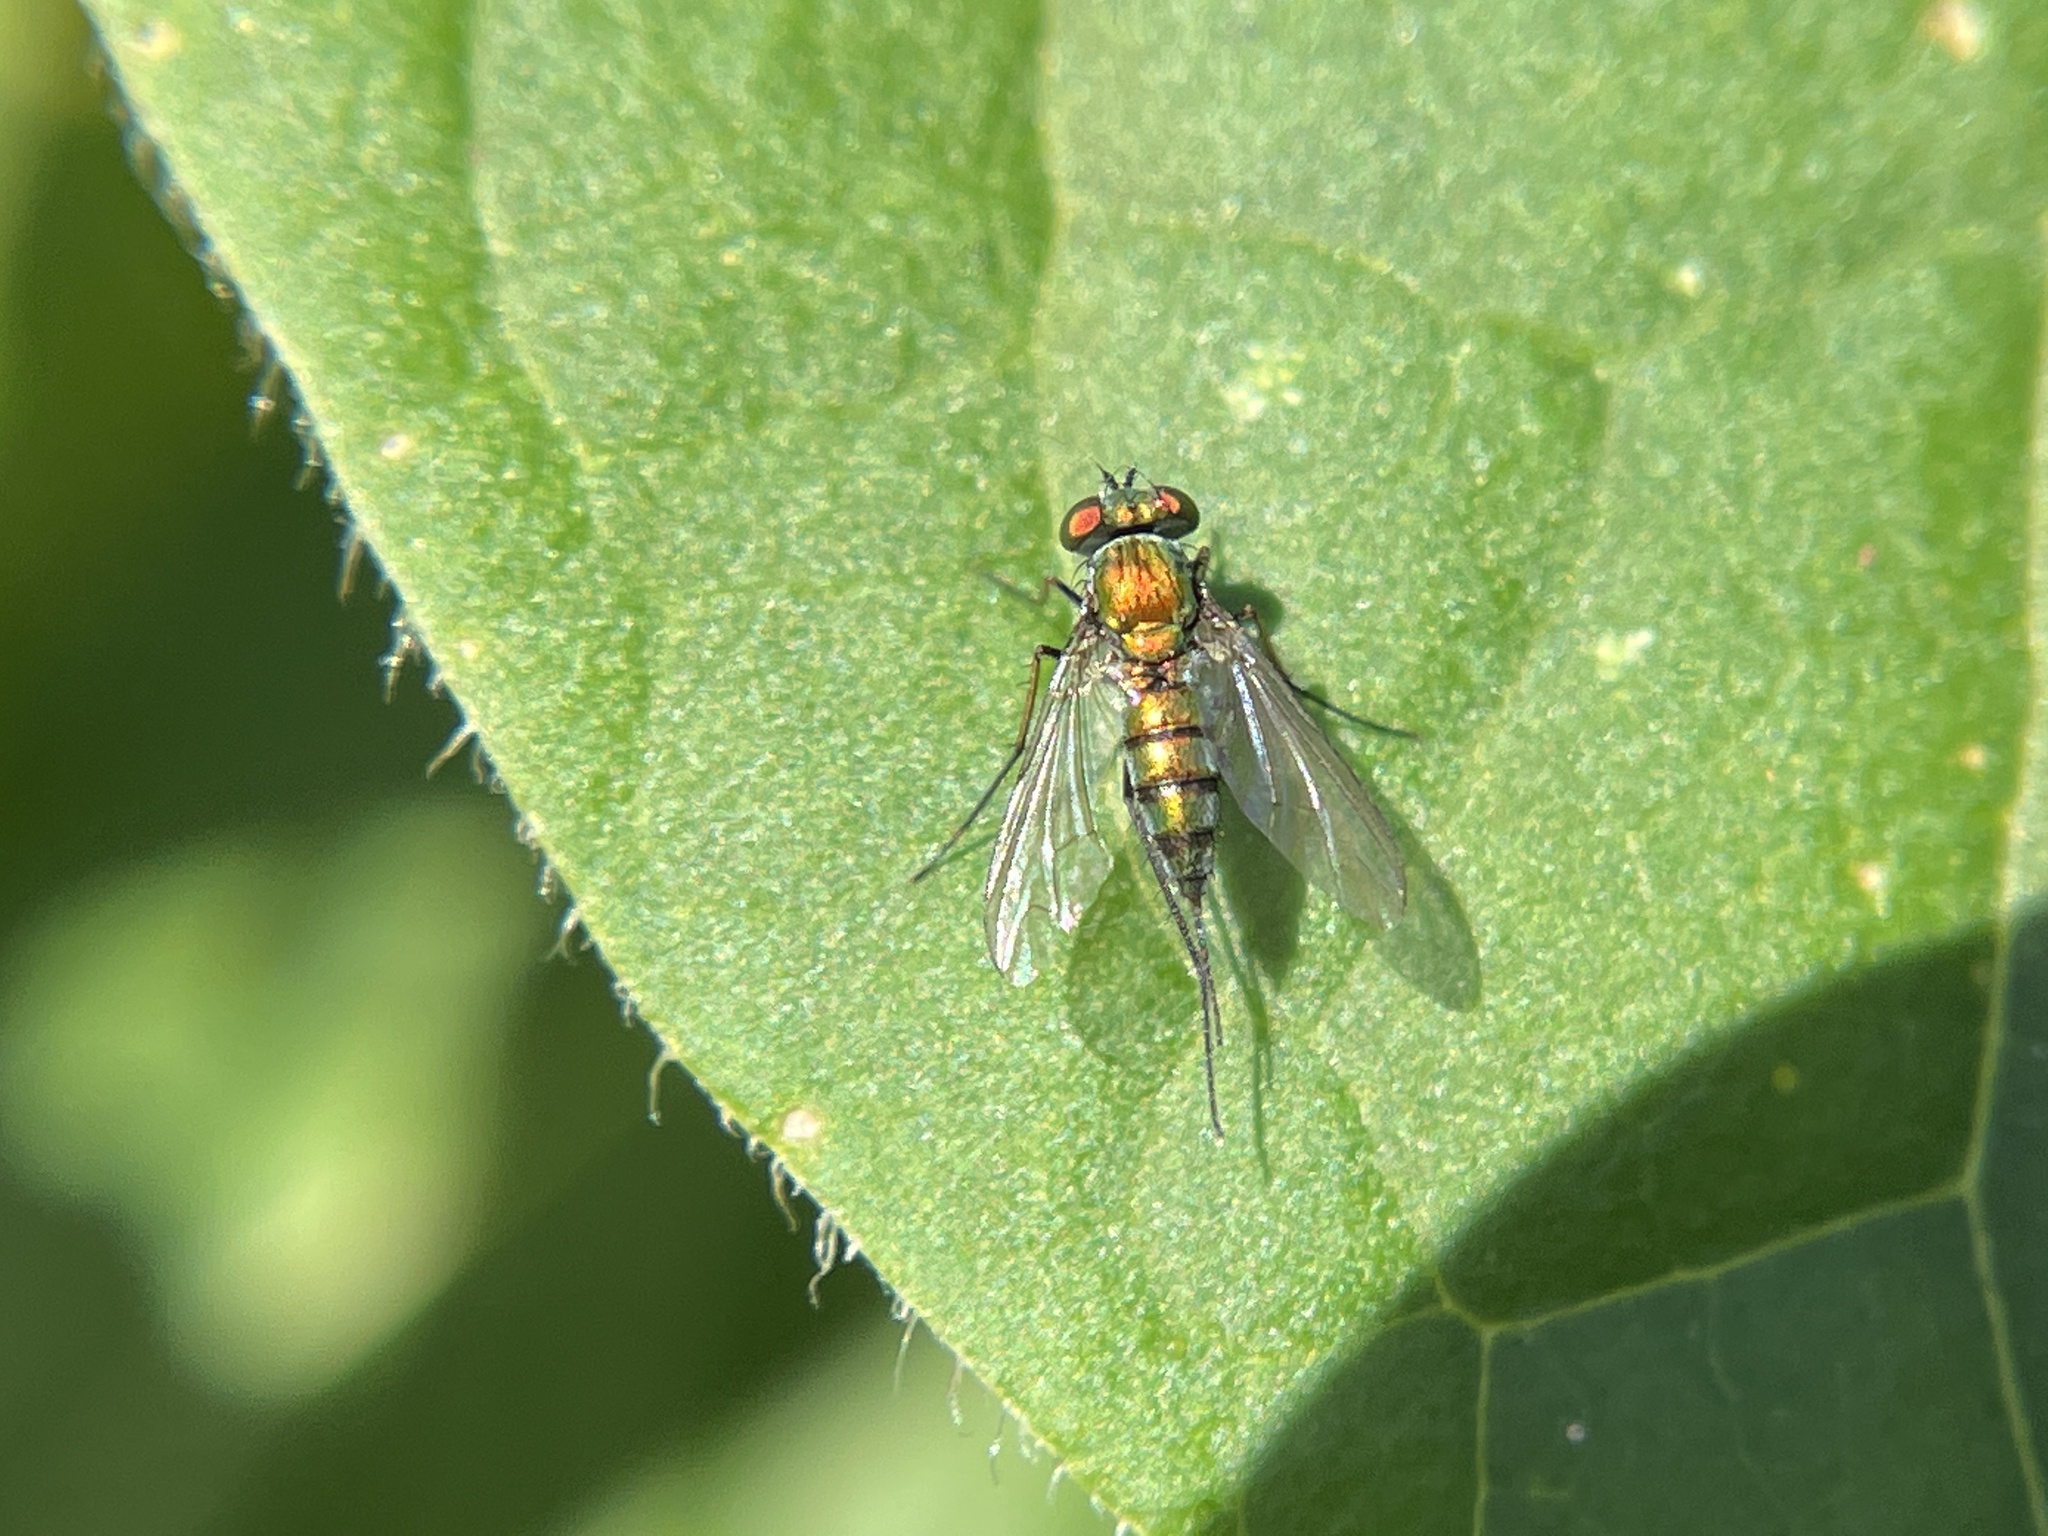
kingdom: Animalia
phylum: Arthropoda
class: Insecta
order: Diptera
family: Dolichopodidae
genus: Condylostylus
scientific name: Condylostylus longicornis
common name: Long-legged fly
